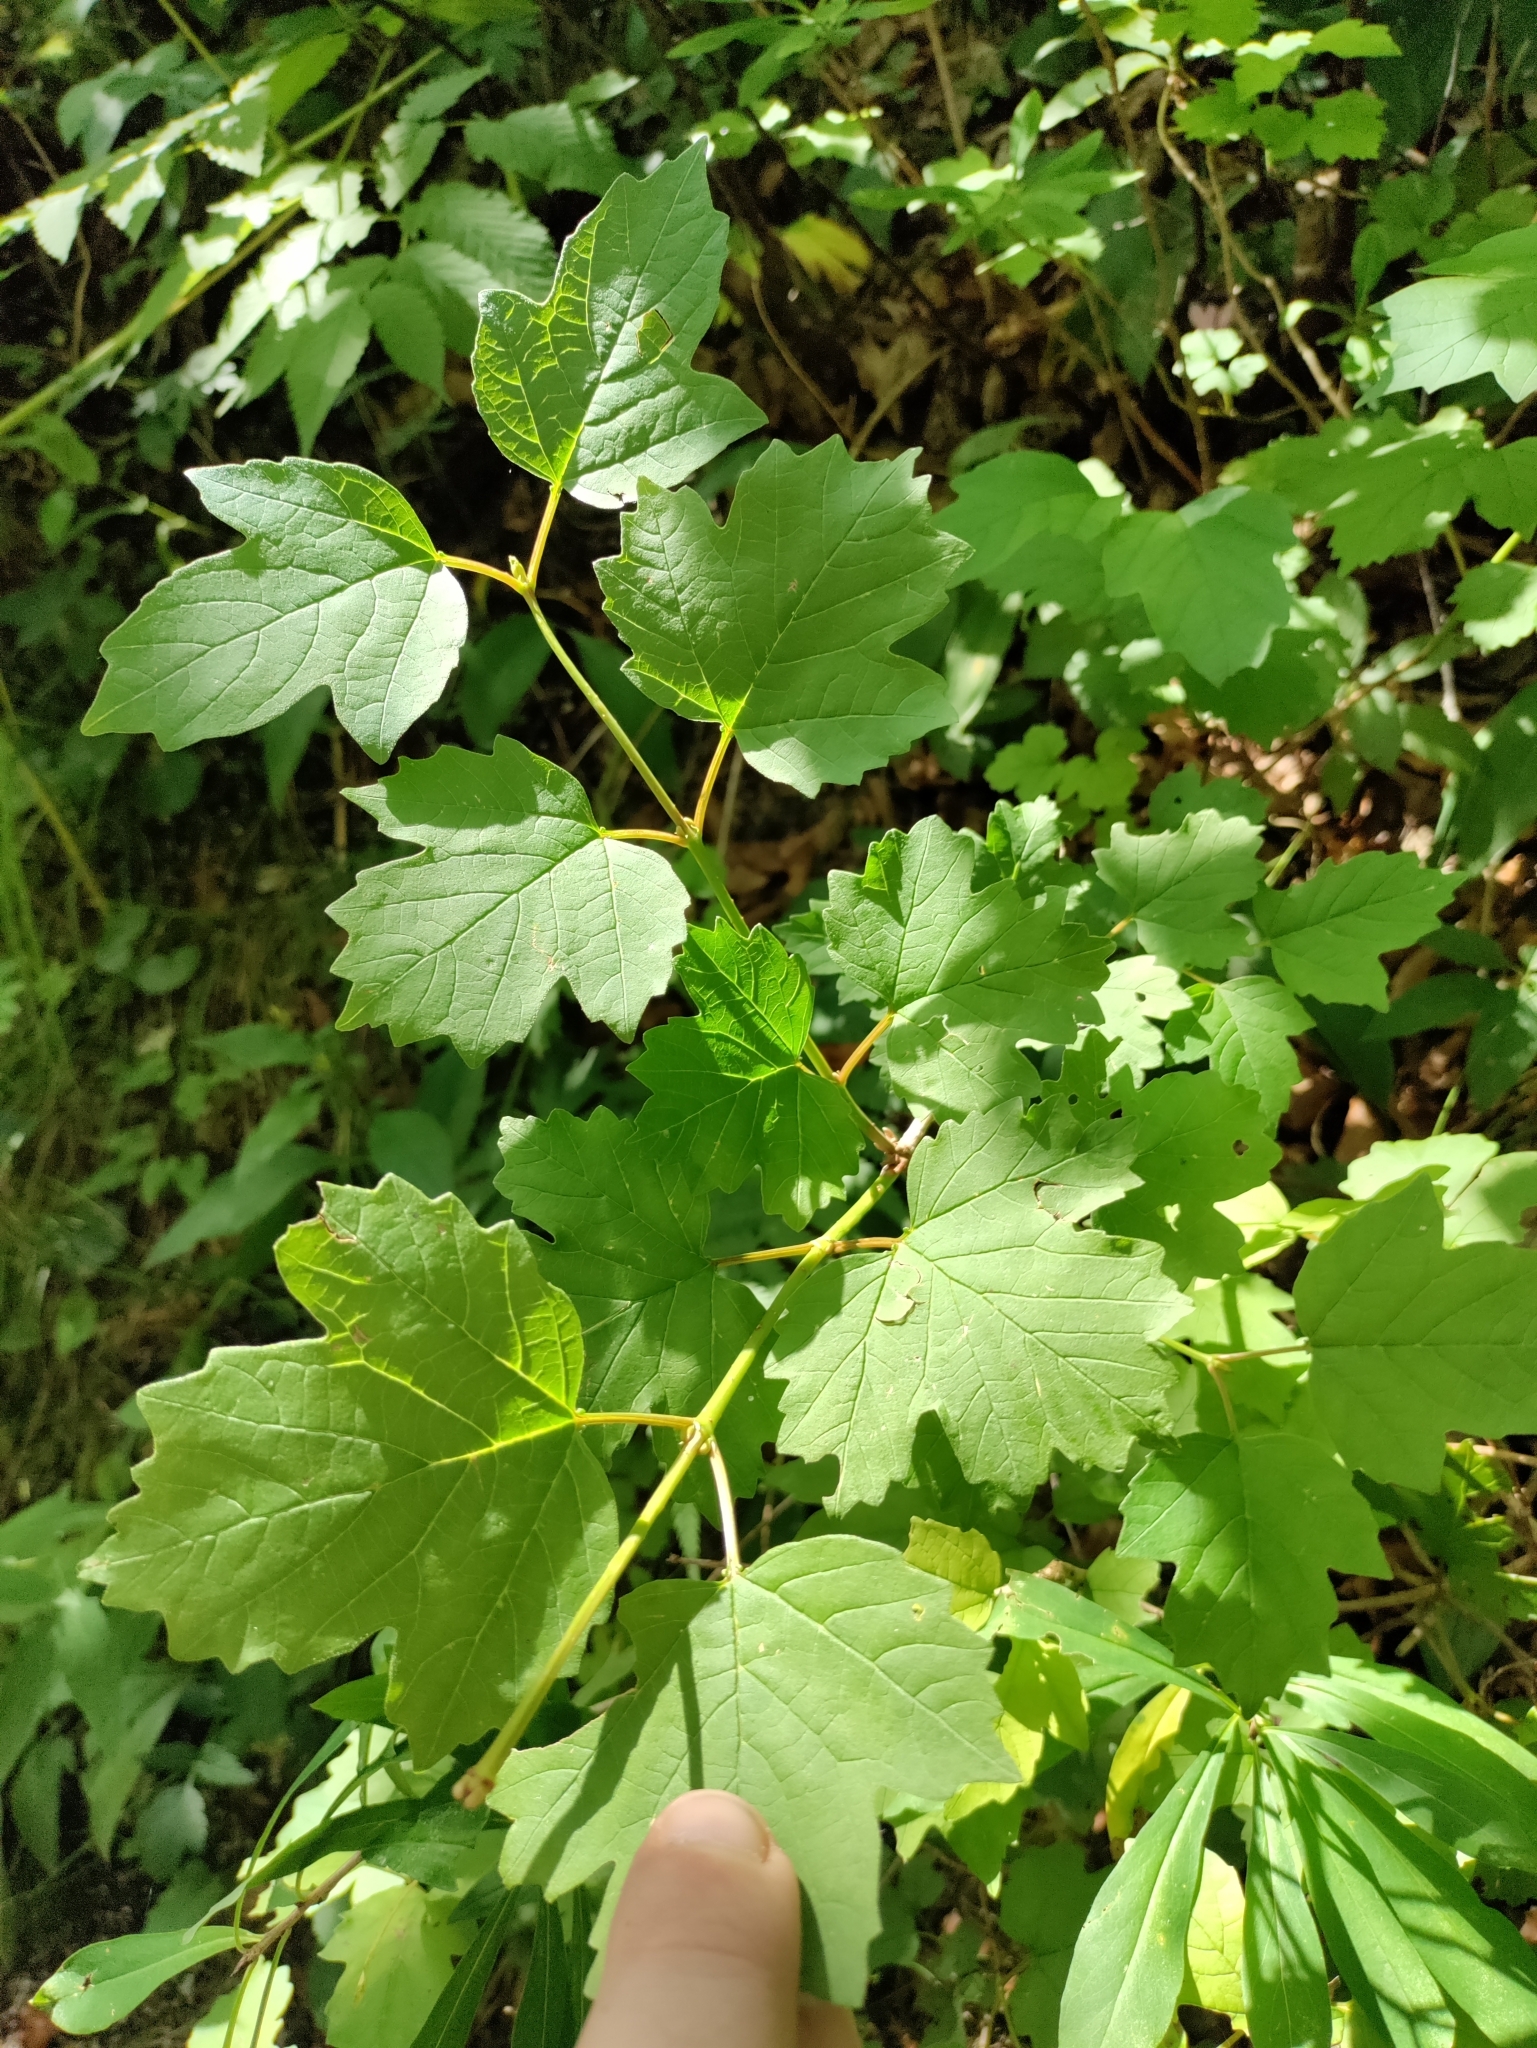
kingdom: Plantae
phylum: Tracheophyta
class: Magnoliopsida
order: Dipsacales
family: Viburnaceae
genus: Viburnum
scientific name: Viburnum opulus
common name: Guelder-rose
